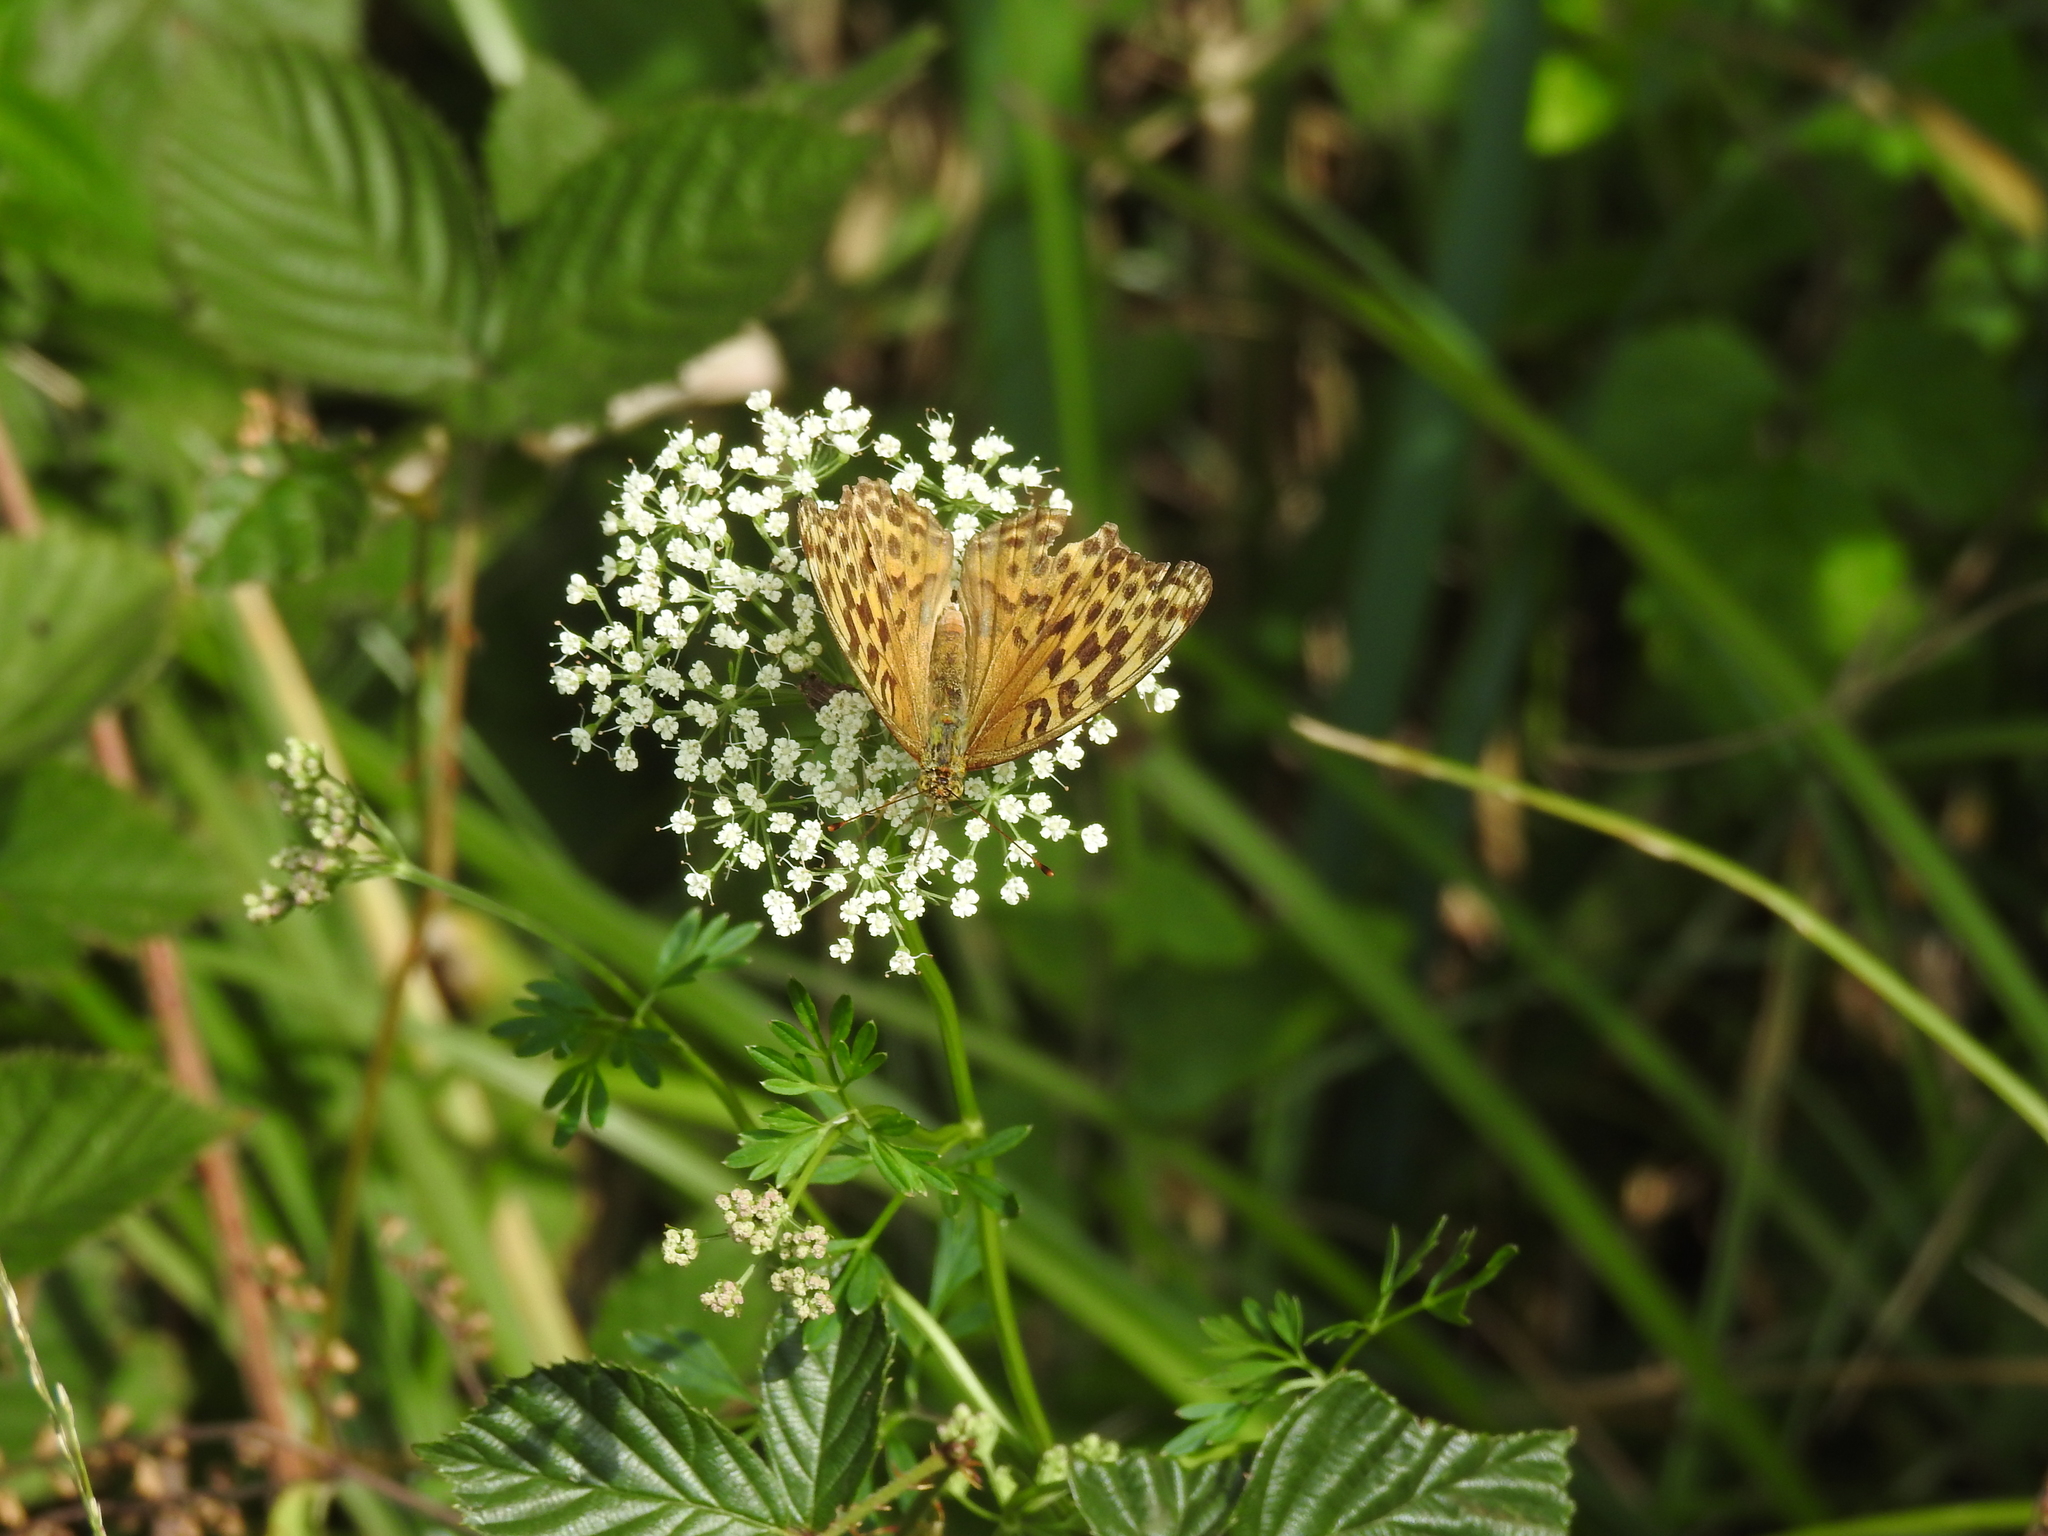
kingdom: Animalia
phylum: Arthropoda
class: Insecta
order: Lepidoptera
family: Nymphalidae
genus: Argynnis
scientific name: Argynnis paphia
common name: Silver-washed fritillary
